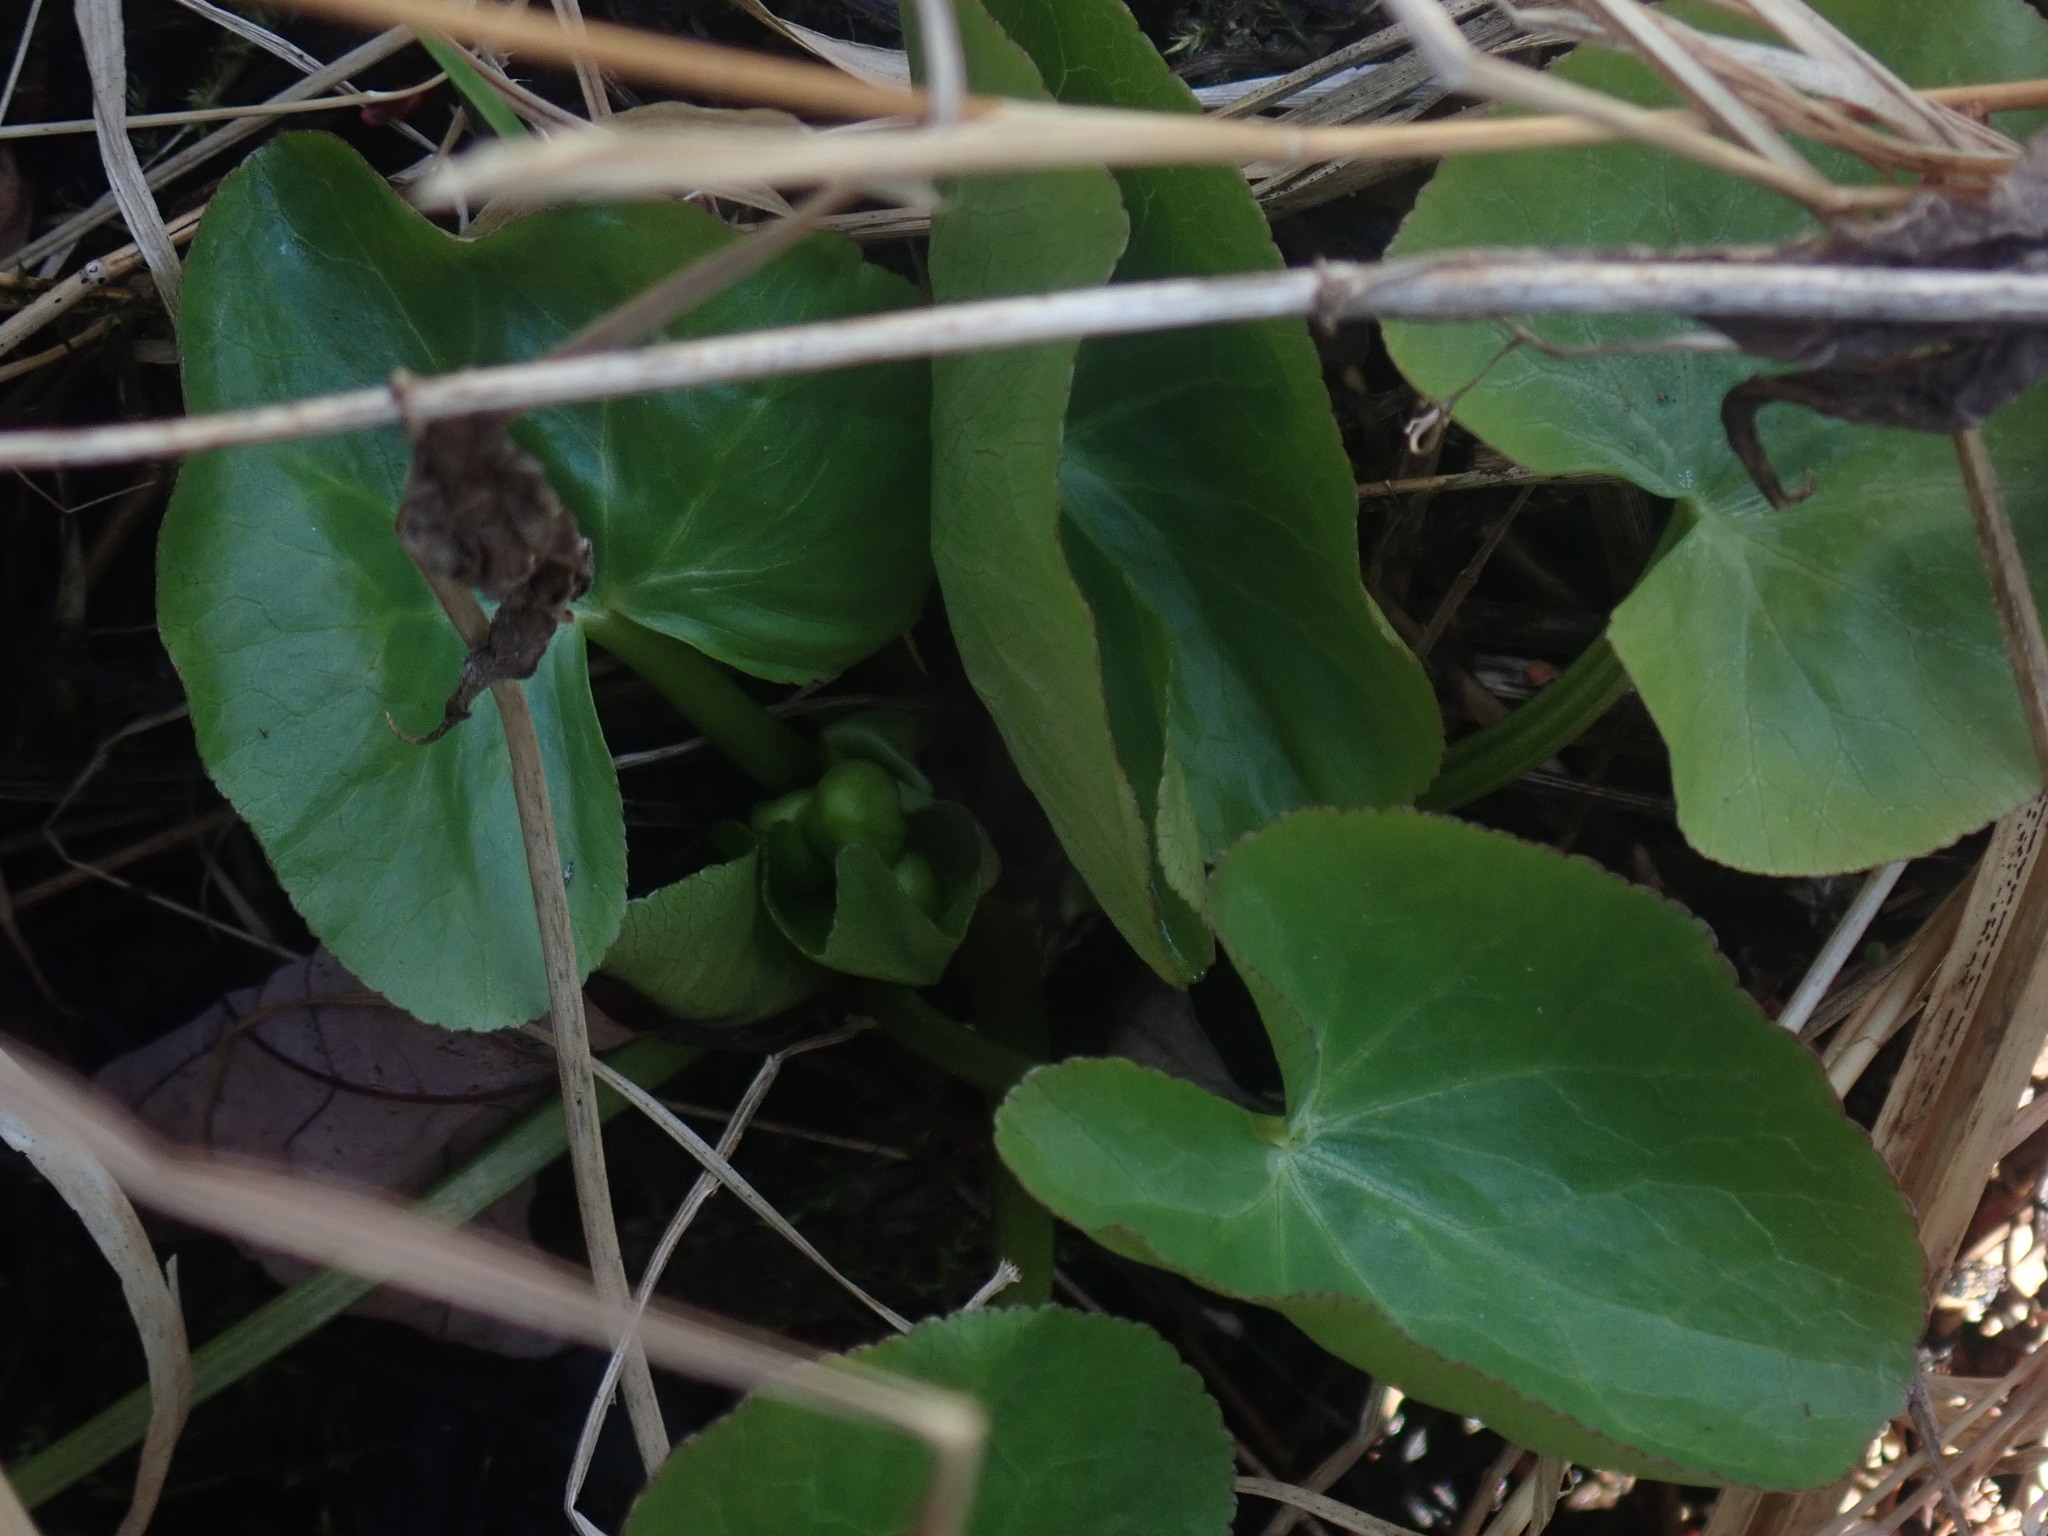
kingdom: Plantae
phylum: Tracheophyta
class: Magnoliopsida
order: Ranunculales
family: Ranunculaceae
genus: Caltha
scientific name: Caltha palustris
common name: Marsh marigold
